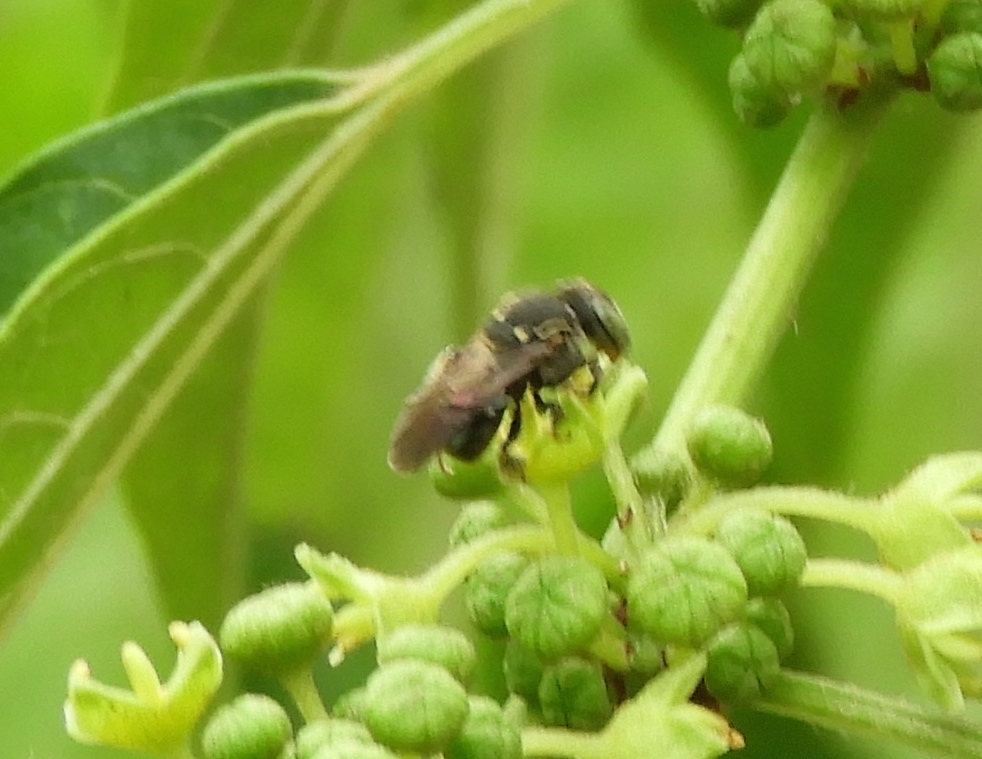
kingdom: Animalia
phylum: Arthropoda
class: Insecta
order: Hymenoptera
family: Apidae
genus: Nannotrigona
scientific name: Nannotrigona perilampoides
